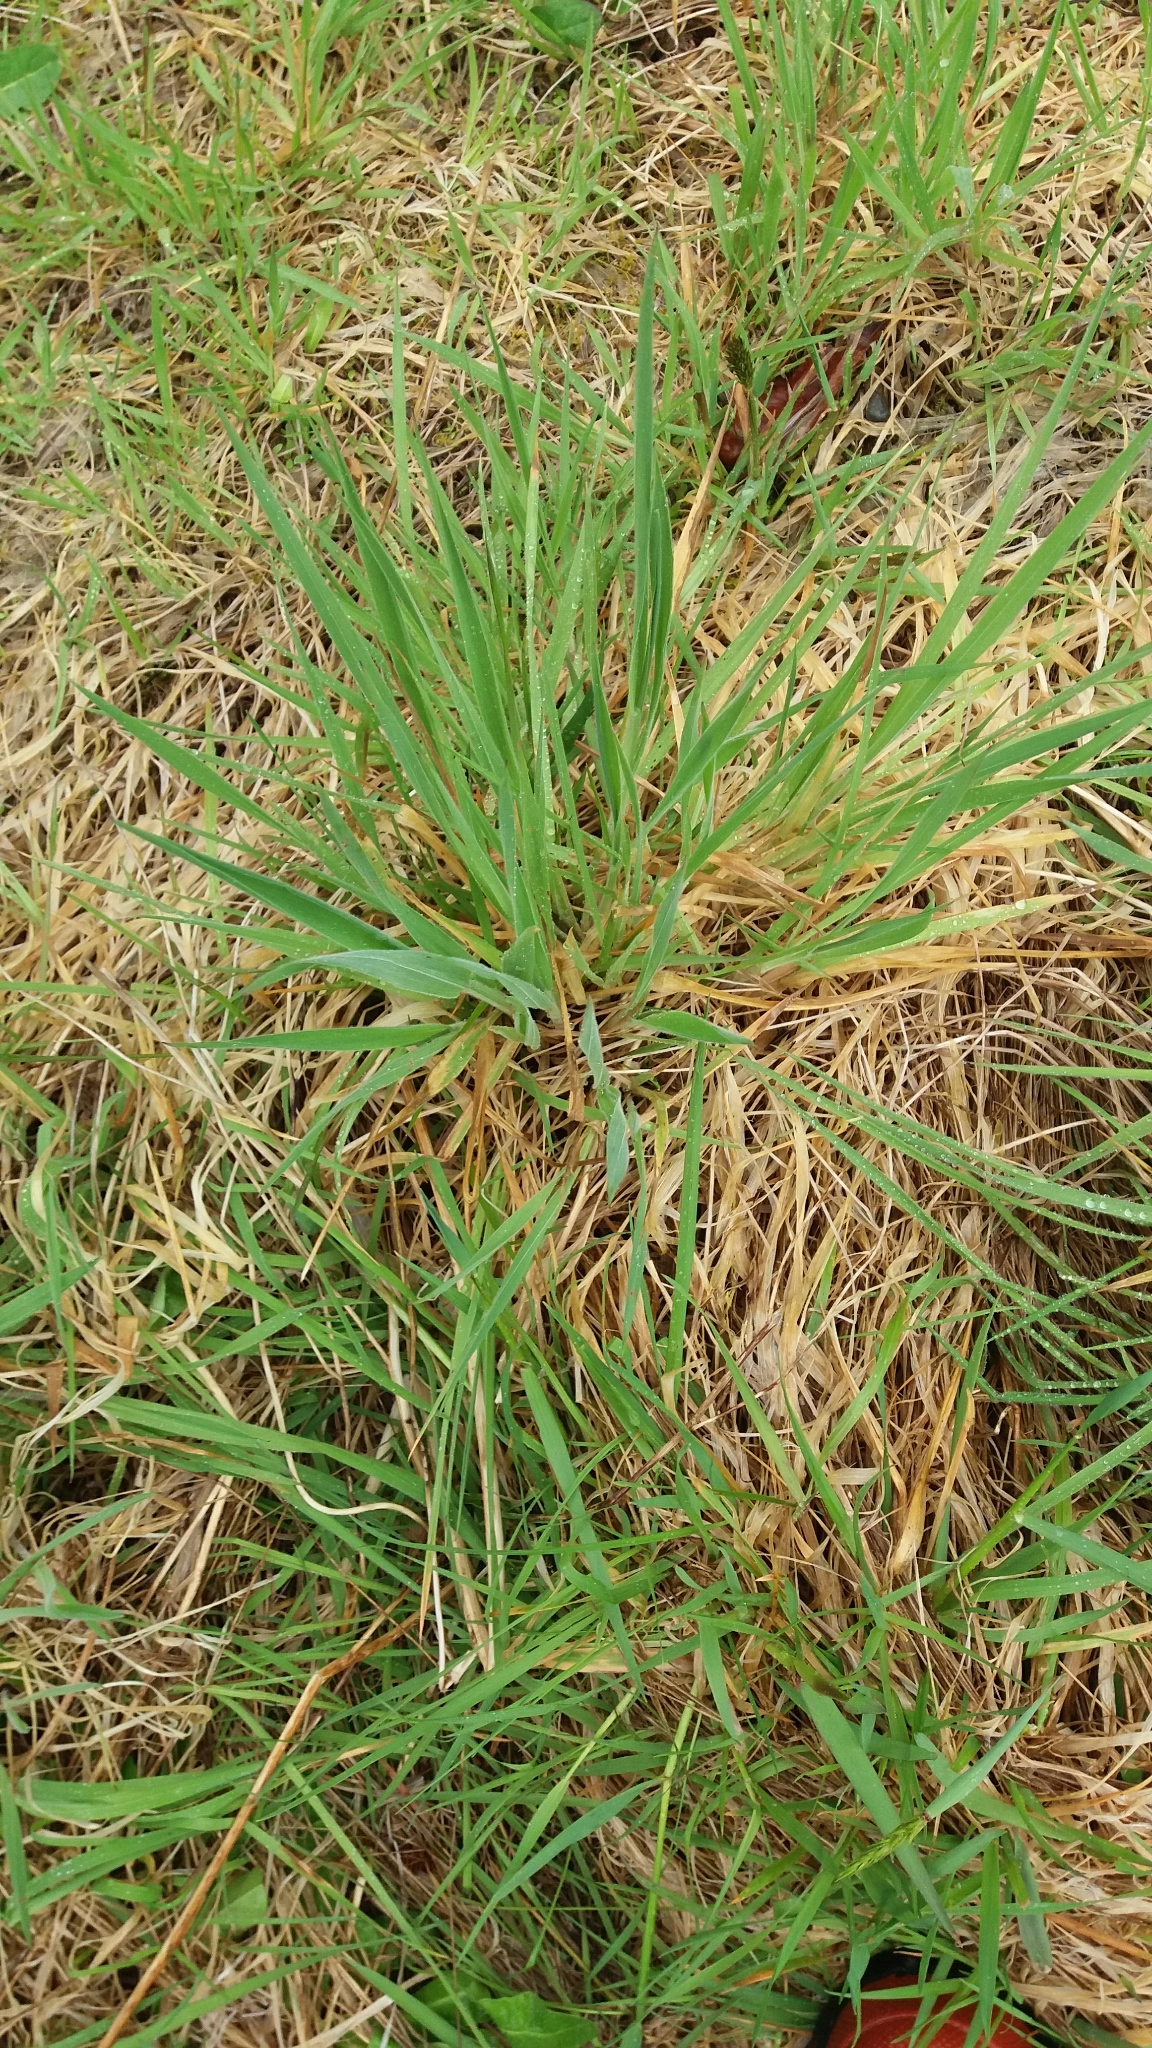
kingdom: Plantae
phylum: Tracheophyta
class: Liliopsida
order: Poales
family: Poaceae
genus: Holcus
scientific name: Holcus lanatus
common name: Yorkshire-fog
